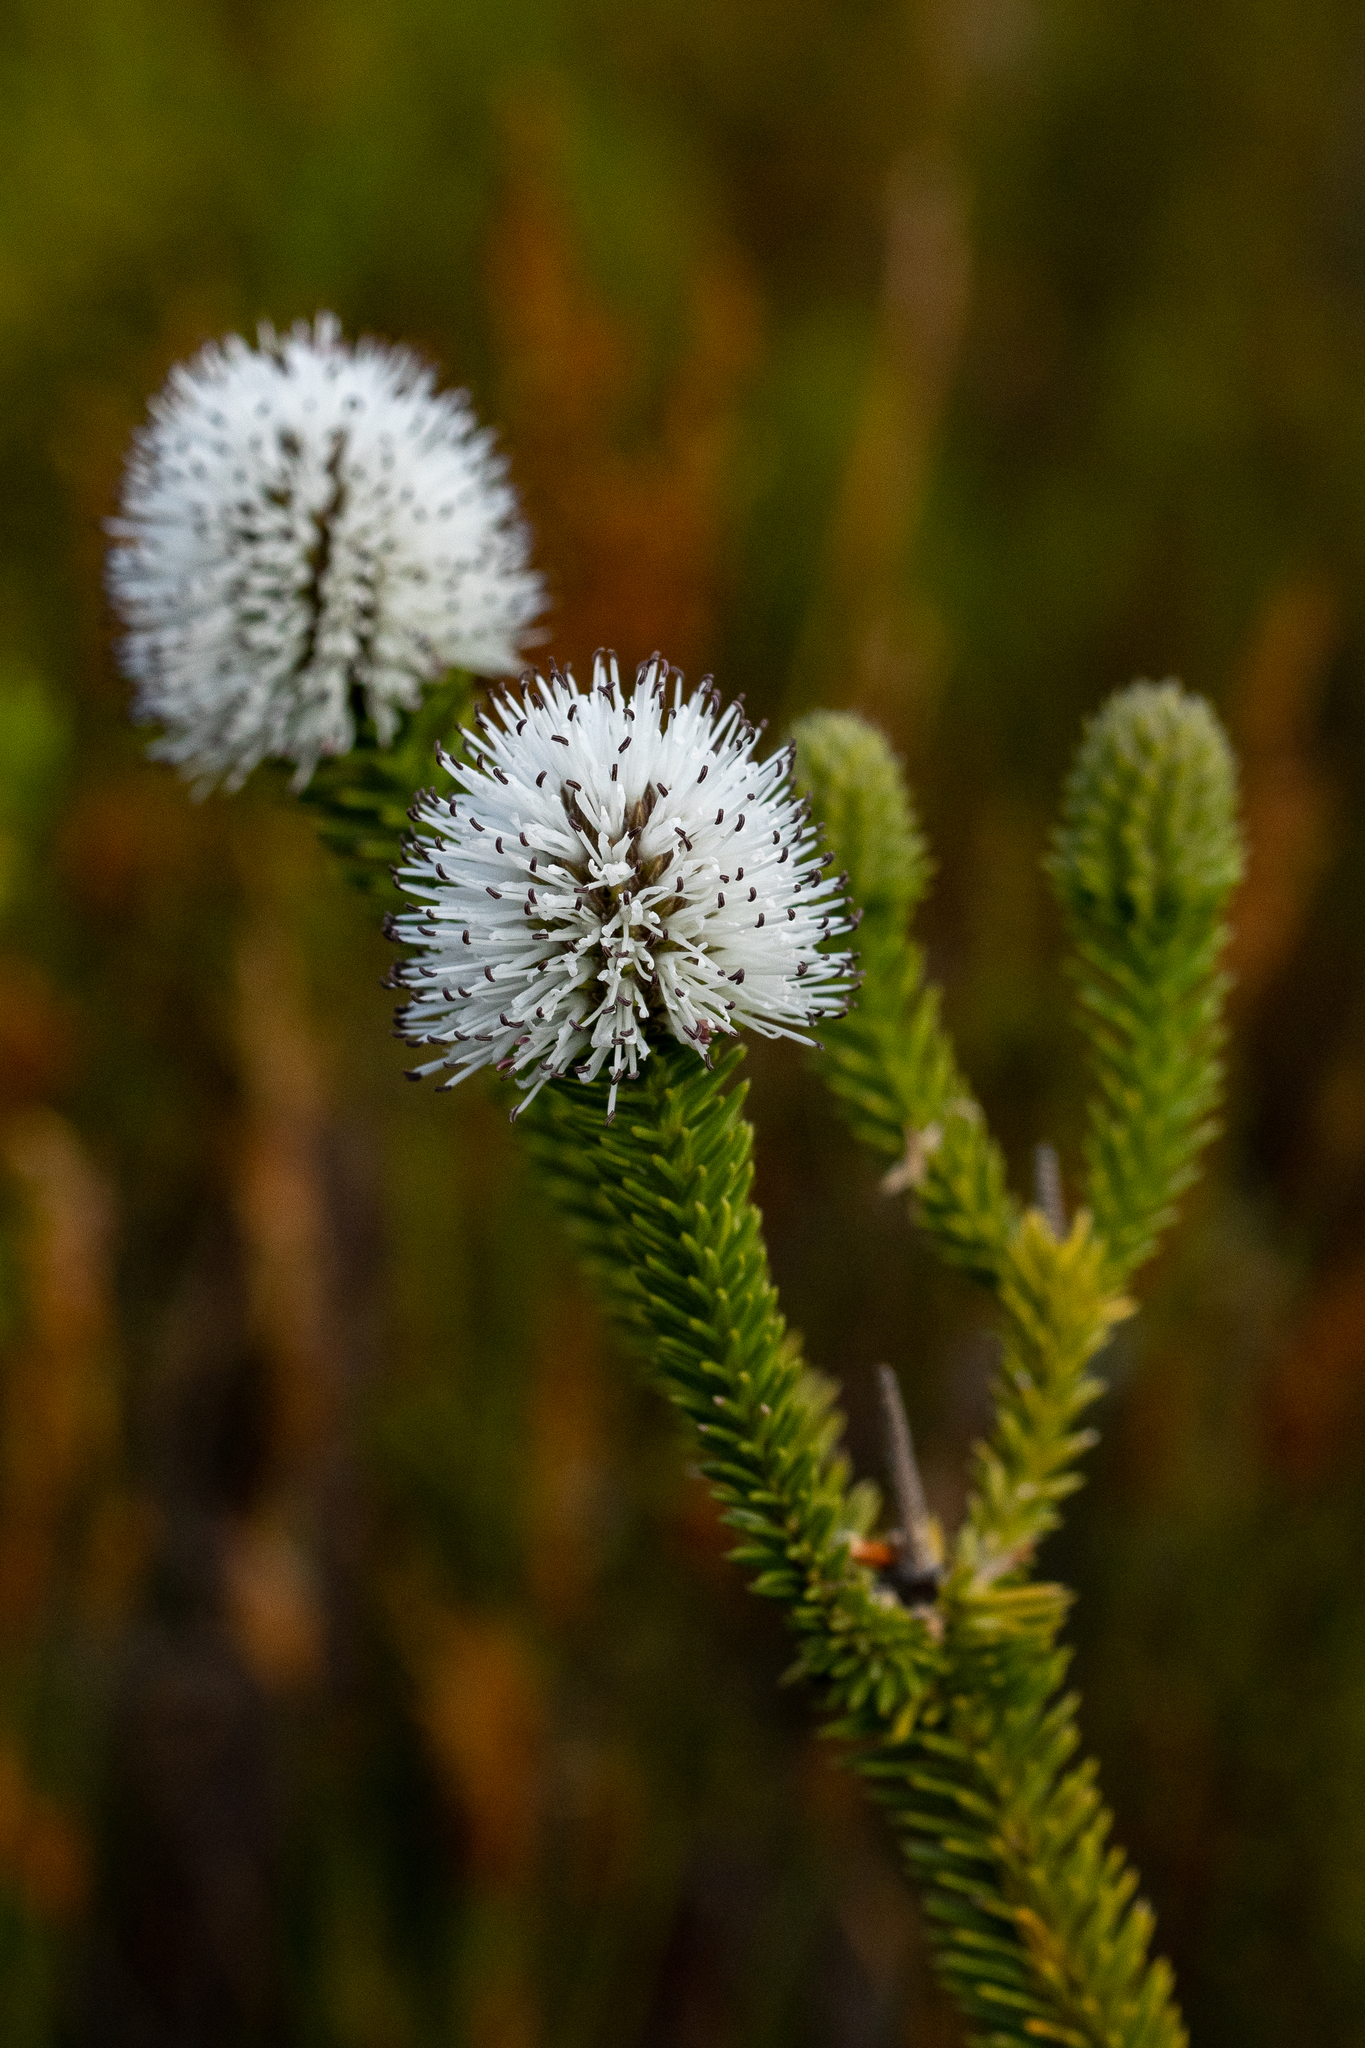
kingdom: Plantae
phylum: Tracheophyta
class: Magnoliopsida
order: Lamiales
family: Stilbaceae
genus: Stilbe
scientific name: Stilbe albiflora
